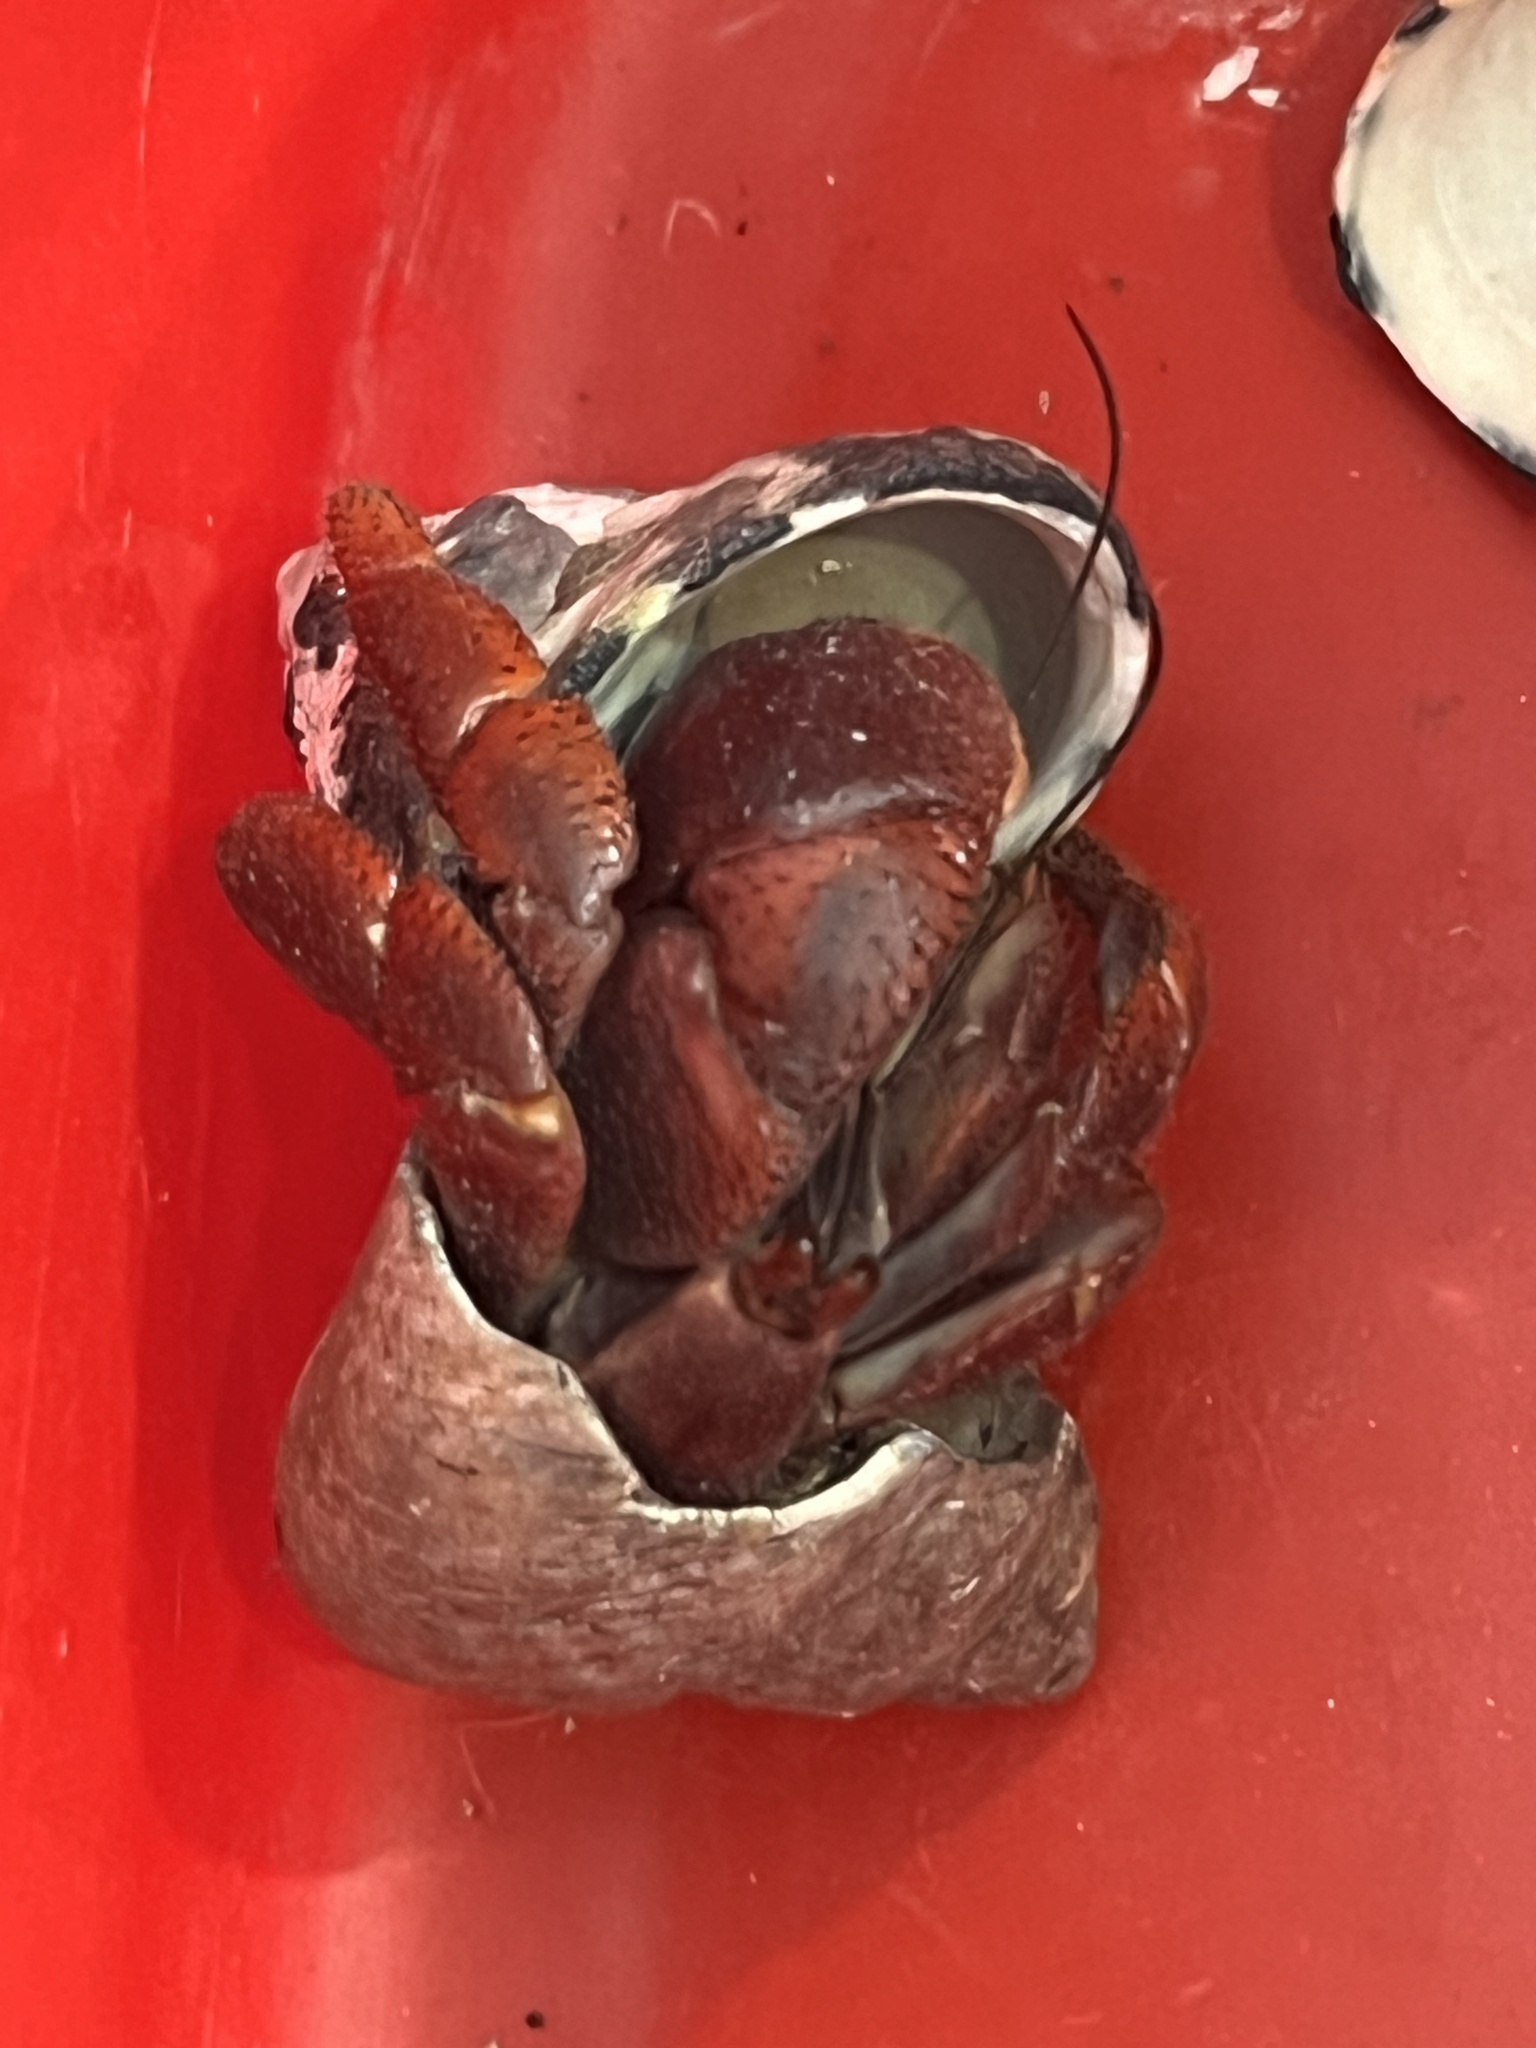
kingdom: Animalia
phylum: Arthropoda
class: Malacostraca
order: Decapoda
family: Coenobitidae
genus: Coenobita
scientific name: Coenobita clypeatus
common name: Caribbean hermit crab
